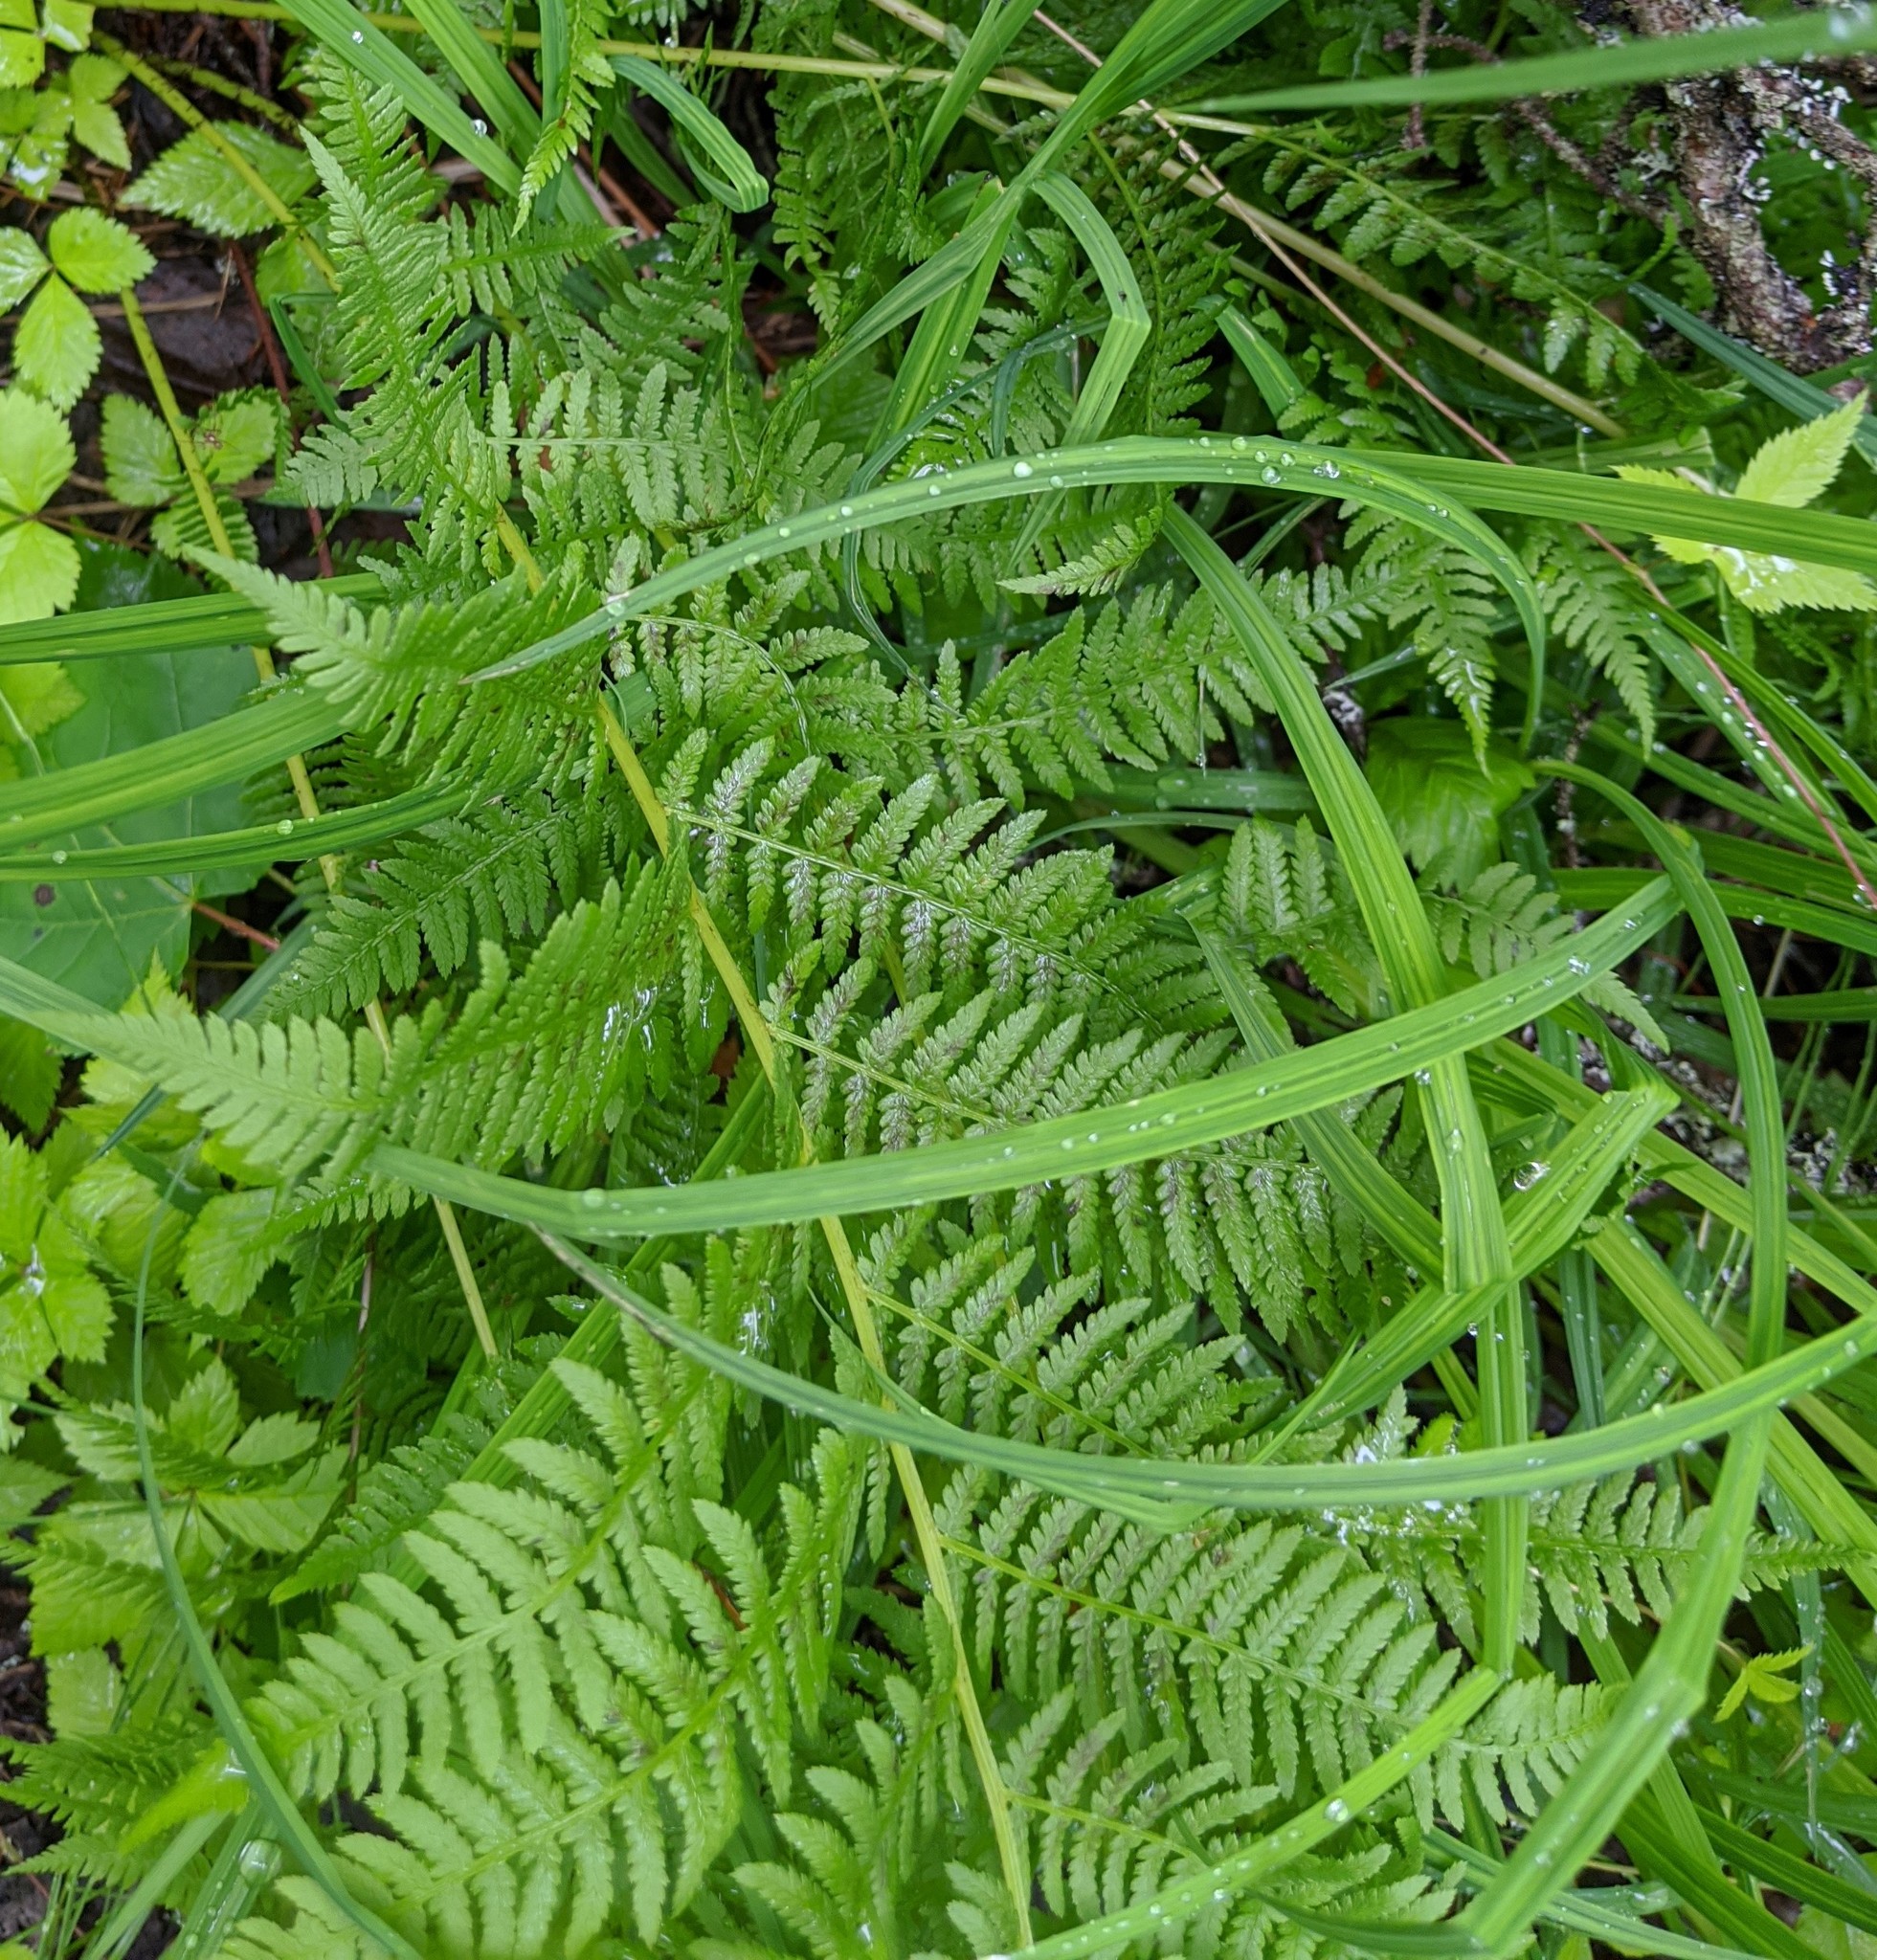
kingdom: Plantae
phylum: Tracheophyta
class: Polypodiopsida
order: Polypodiales
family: Athyriaceae
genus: Athyrium
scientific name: Athyrium angustum
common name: Northern lady fern
